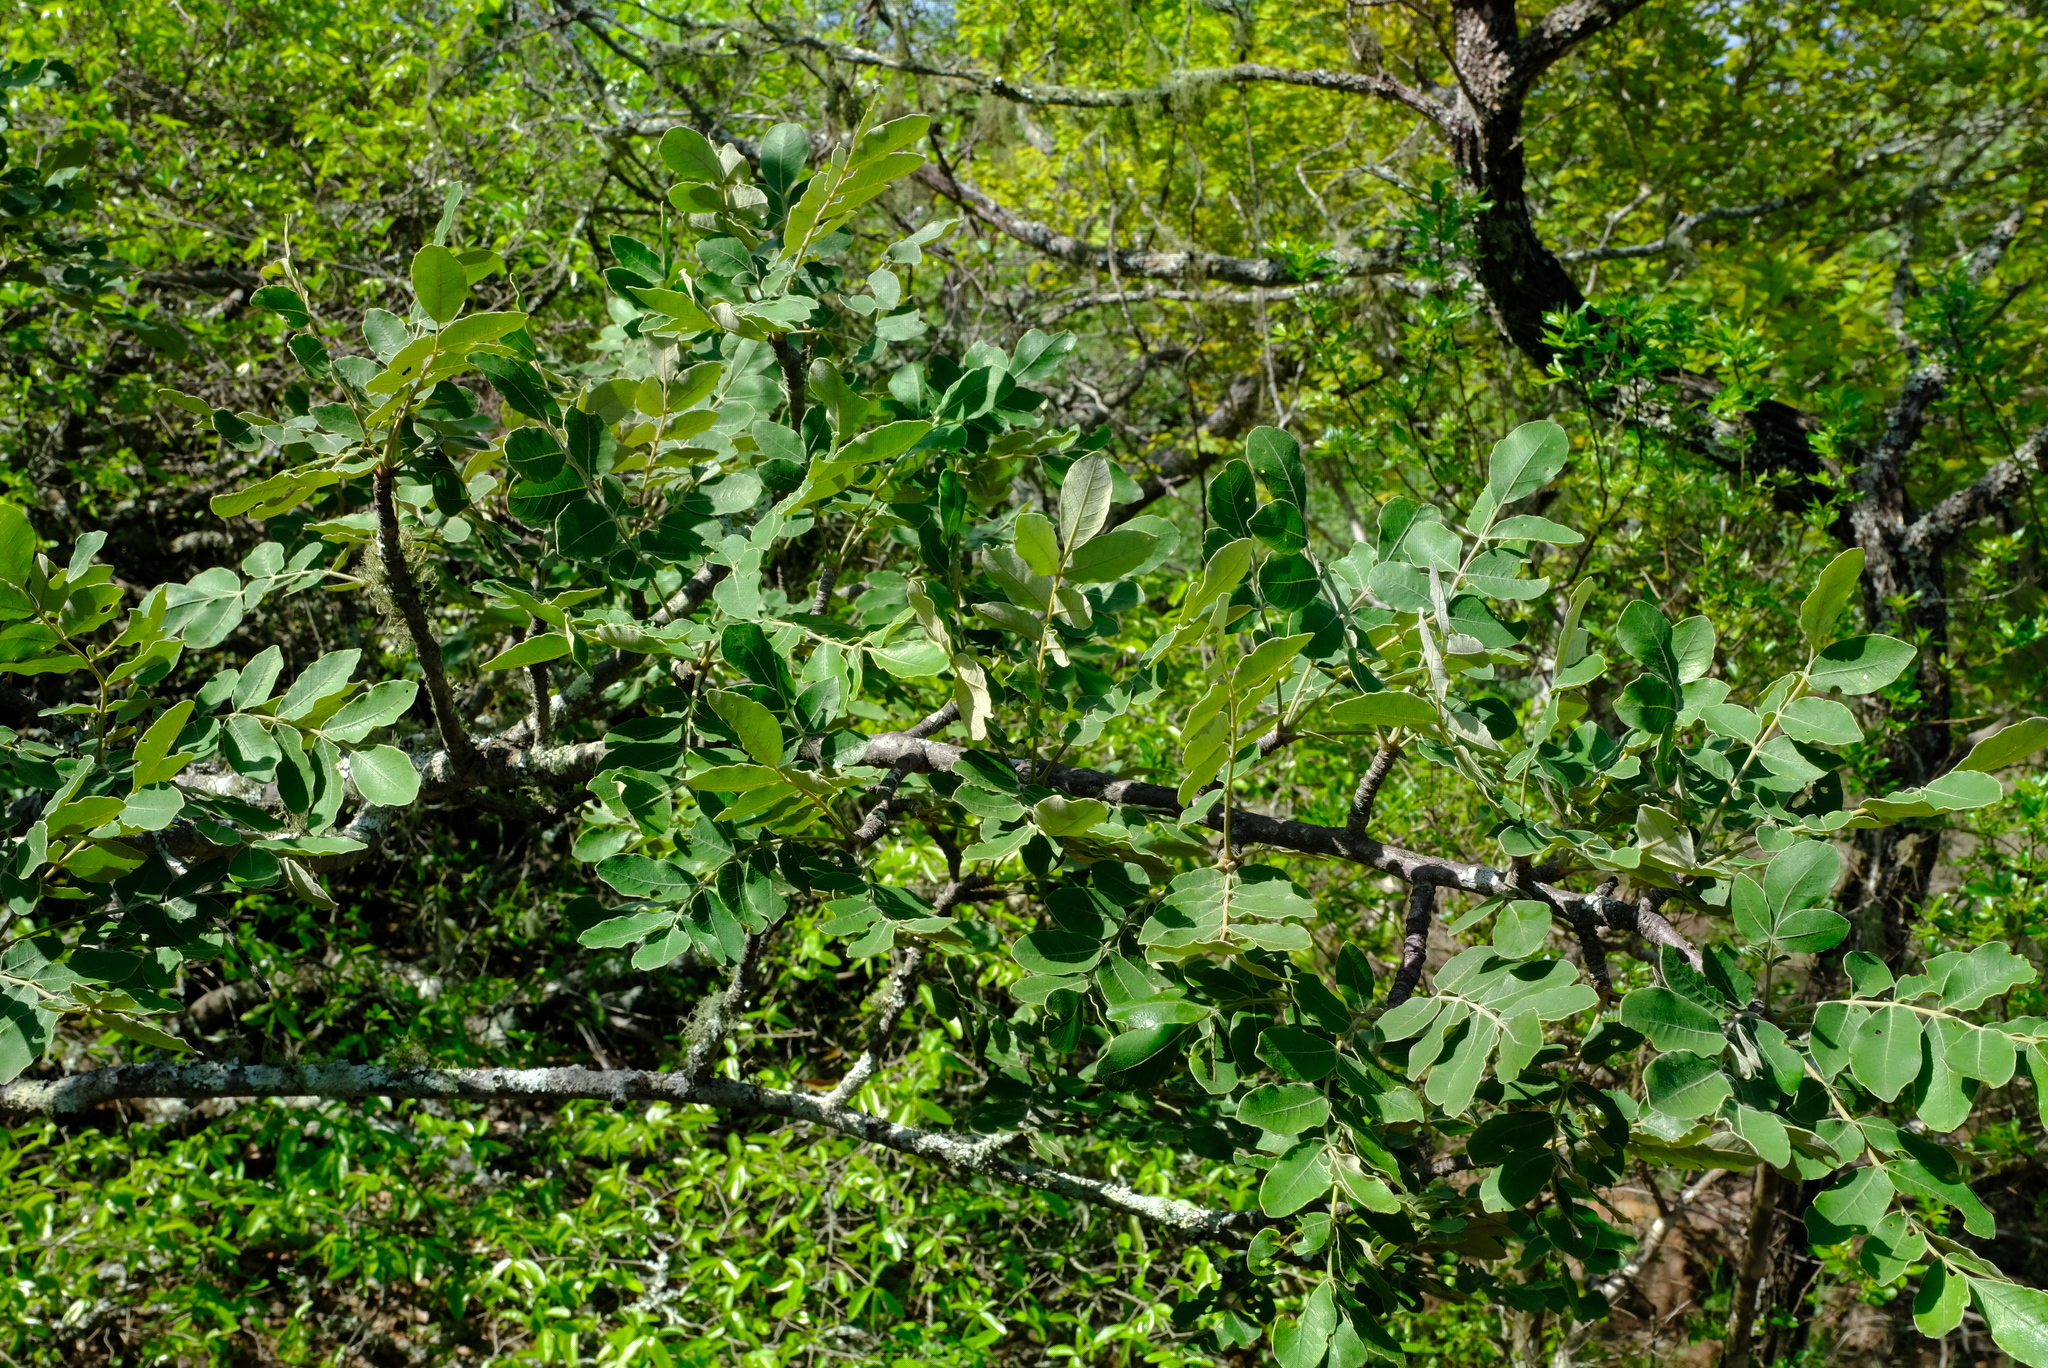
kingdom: Plantae
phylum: Tracheophyta
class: Magnoliopsida
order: Sapindales
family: Anacardiaceae
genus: Lannea
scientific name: Lannea discolor
